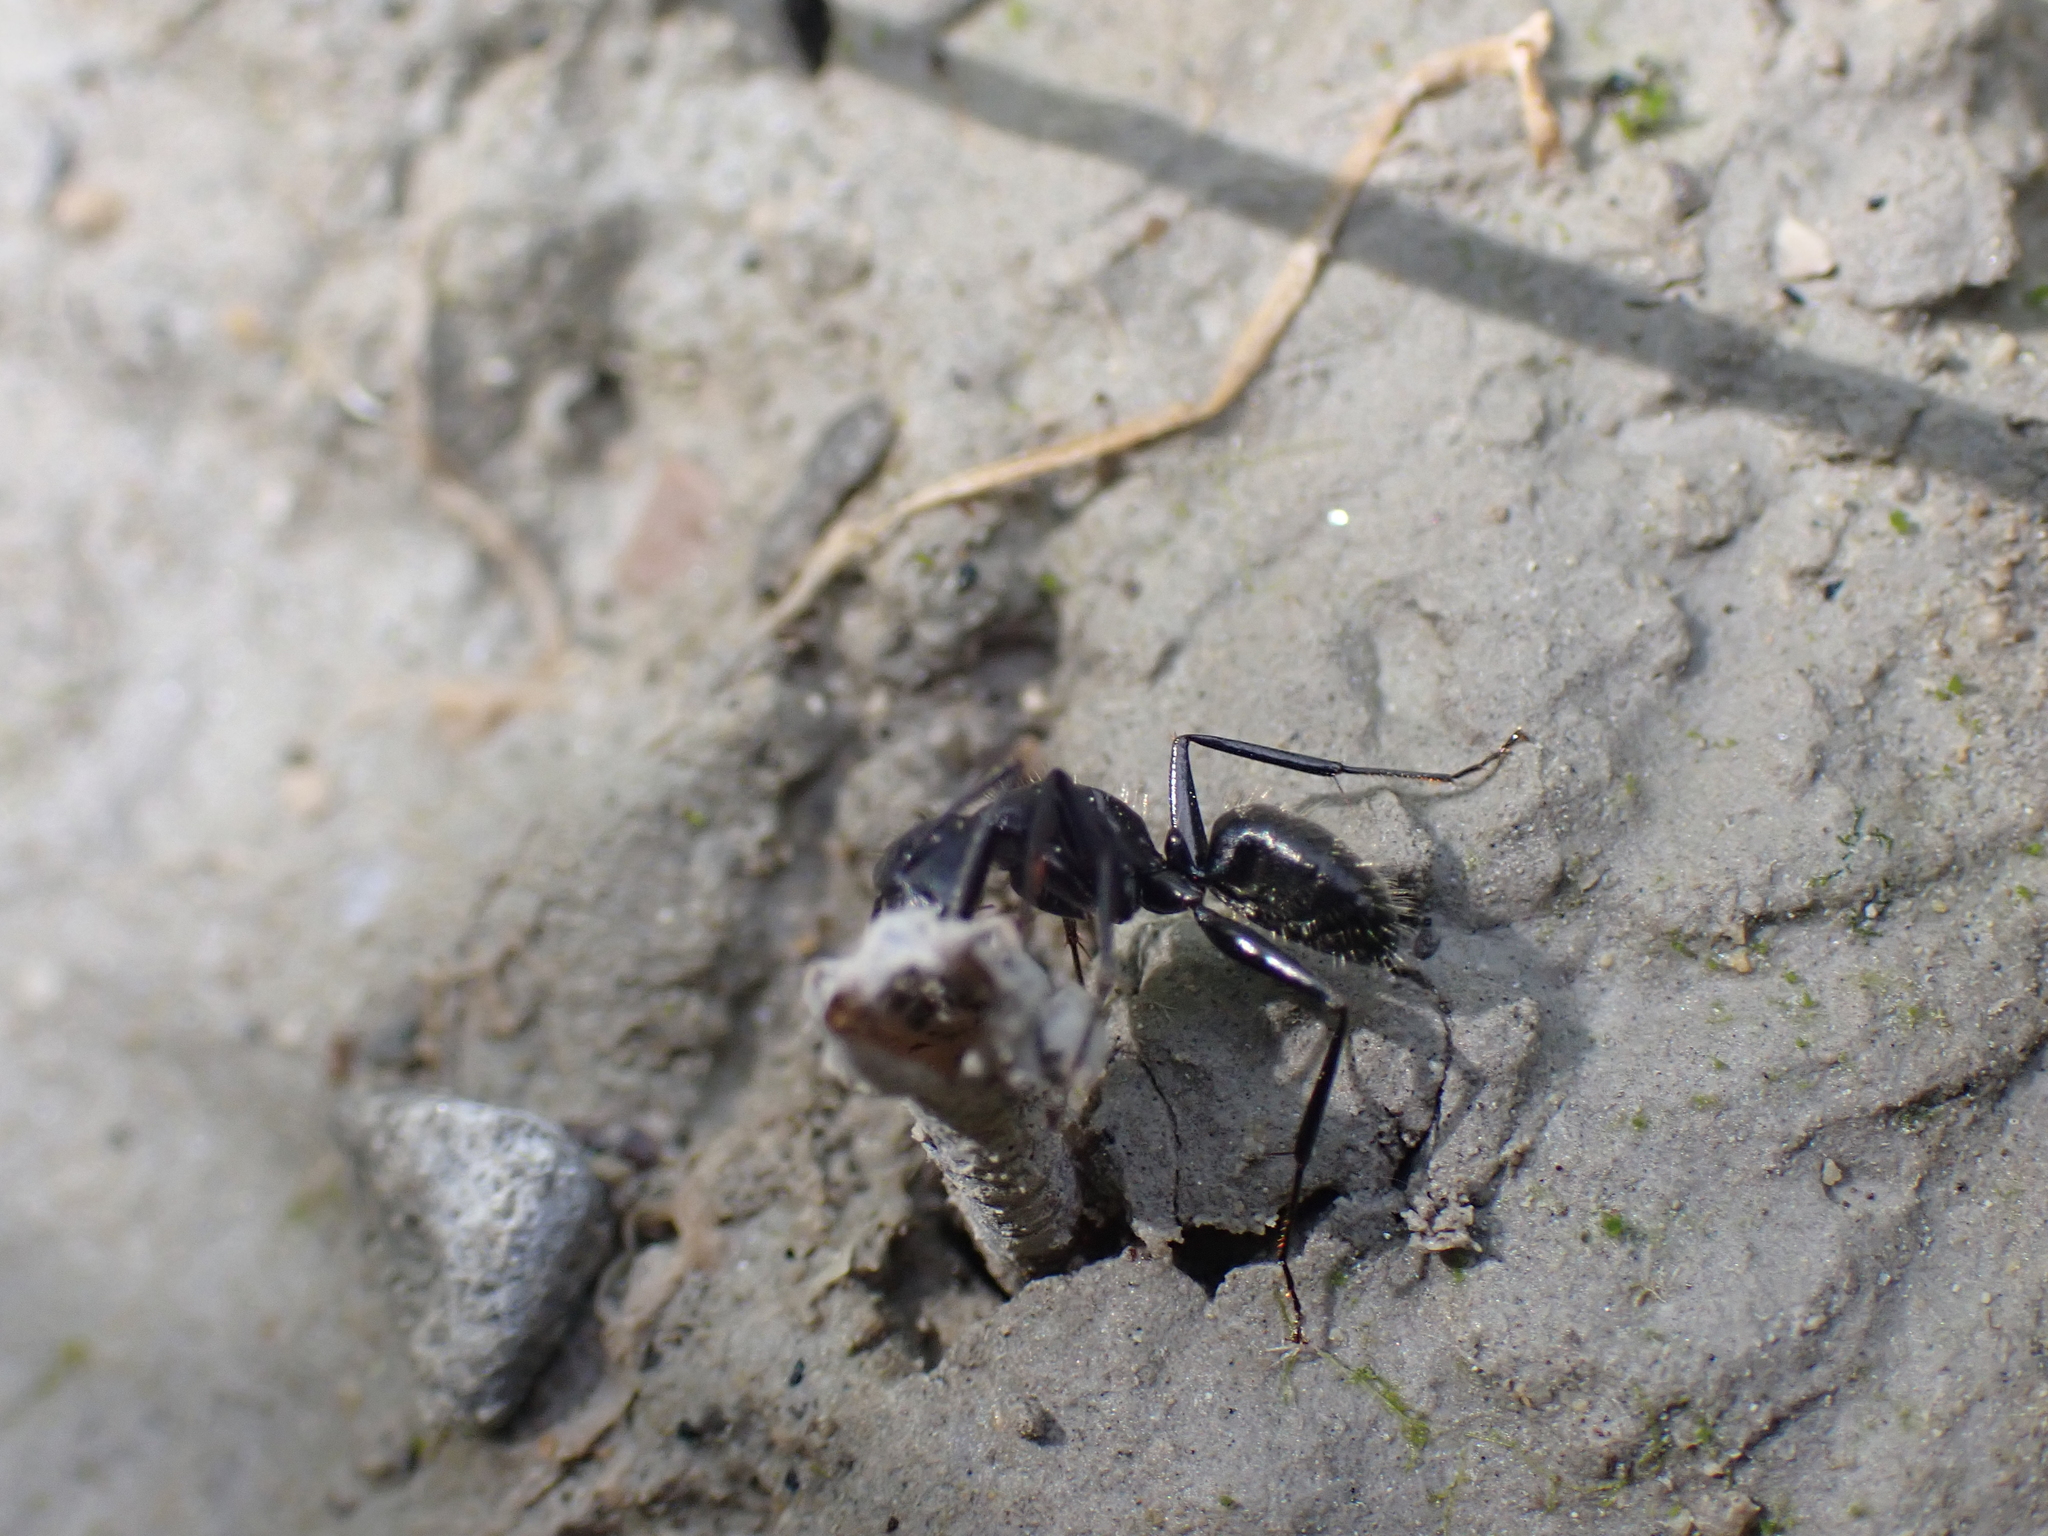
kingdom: Animalia
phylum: Arthropoda
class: Insecta
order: Hymenoptera
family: Formicidae
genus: Camponotus
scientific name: Camponotus vagus
